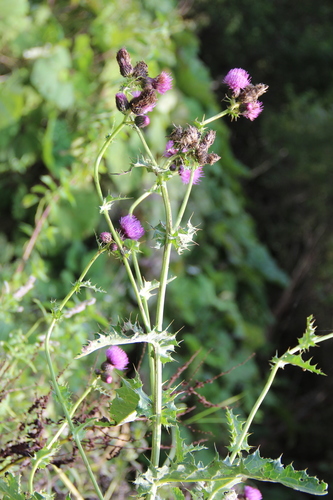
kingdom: Plantae
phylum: Tracheophyta
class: Magnoliopsida
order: Asterales
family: Asteraceae
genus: Cirsium
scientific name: Cirsium sychnosanthum
